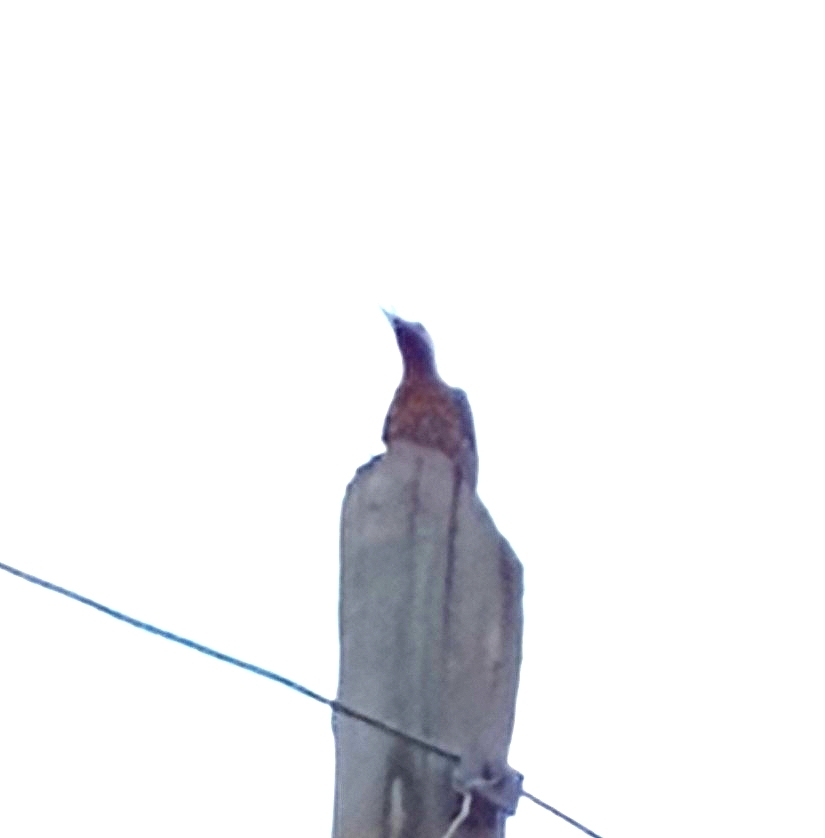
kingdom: Animalia
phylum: Chordata
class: Aves
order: Piciformes
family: Picidae
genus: Colaptes
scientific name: Colaptes melanochloros
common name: Green-barred woodpecker
